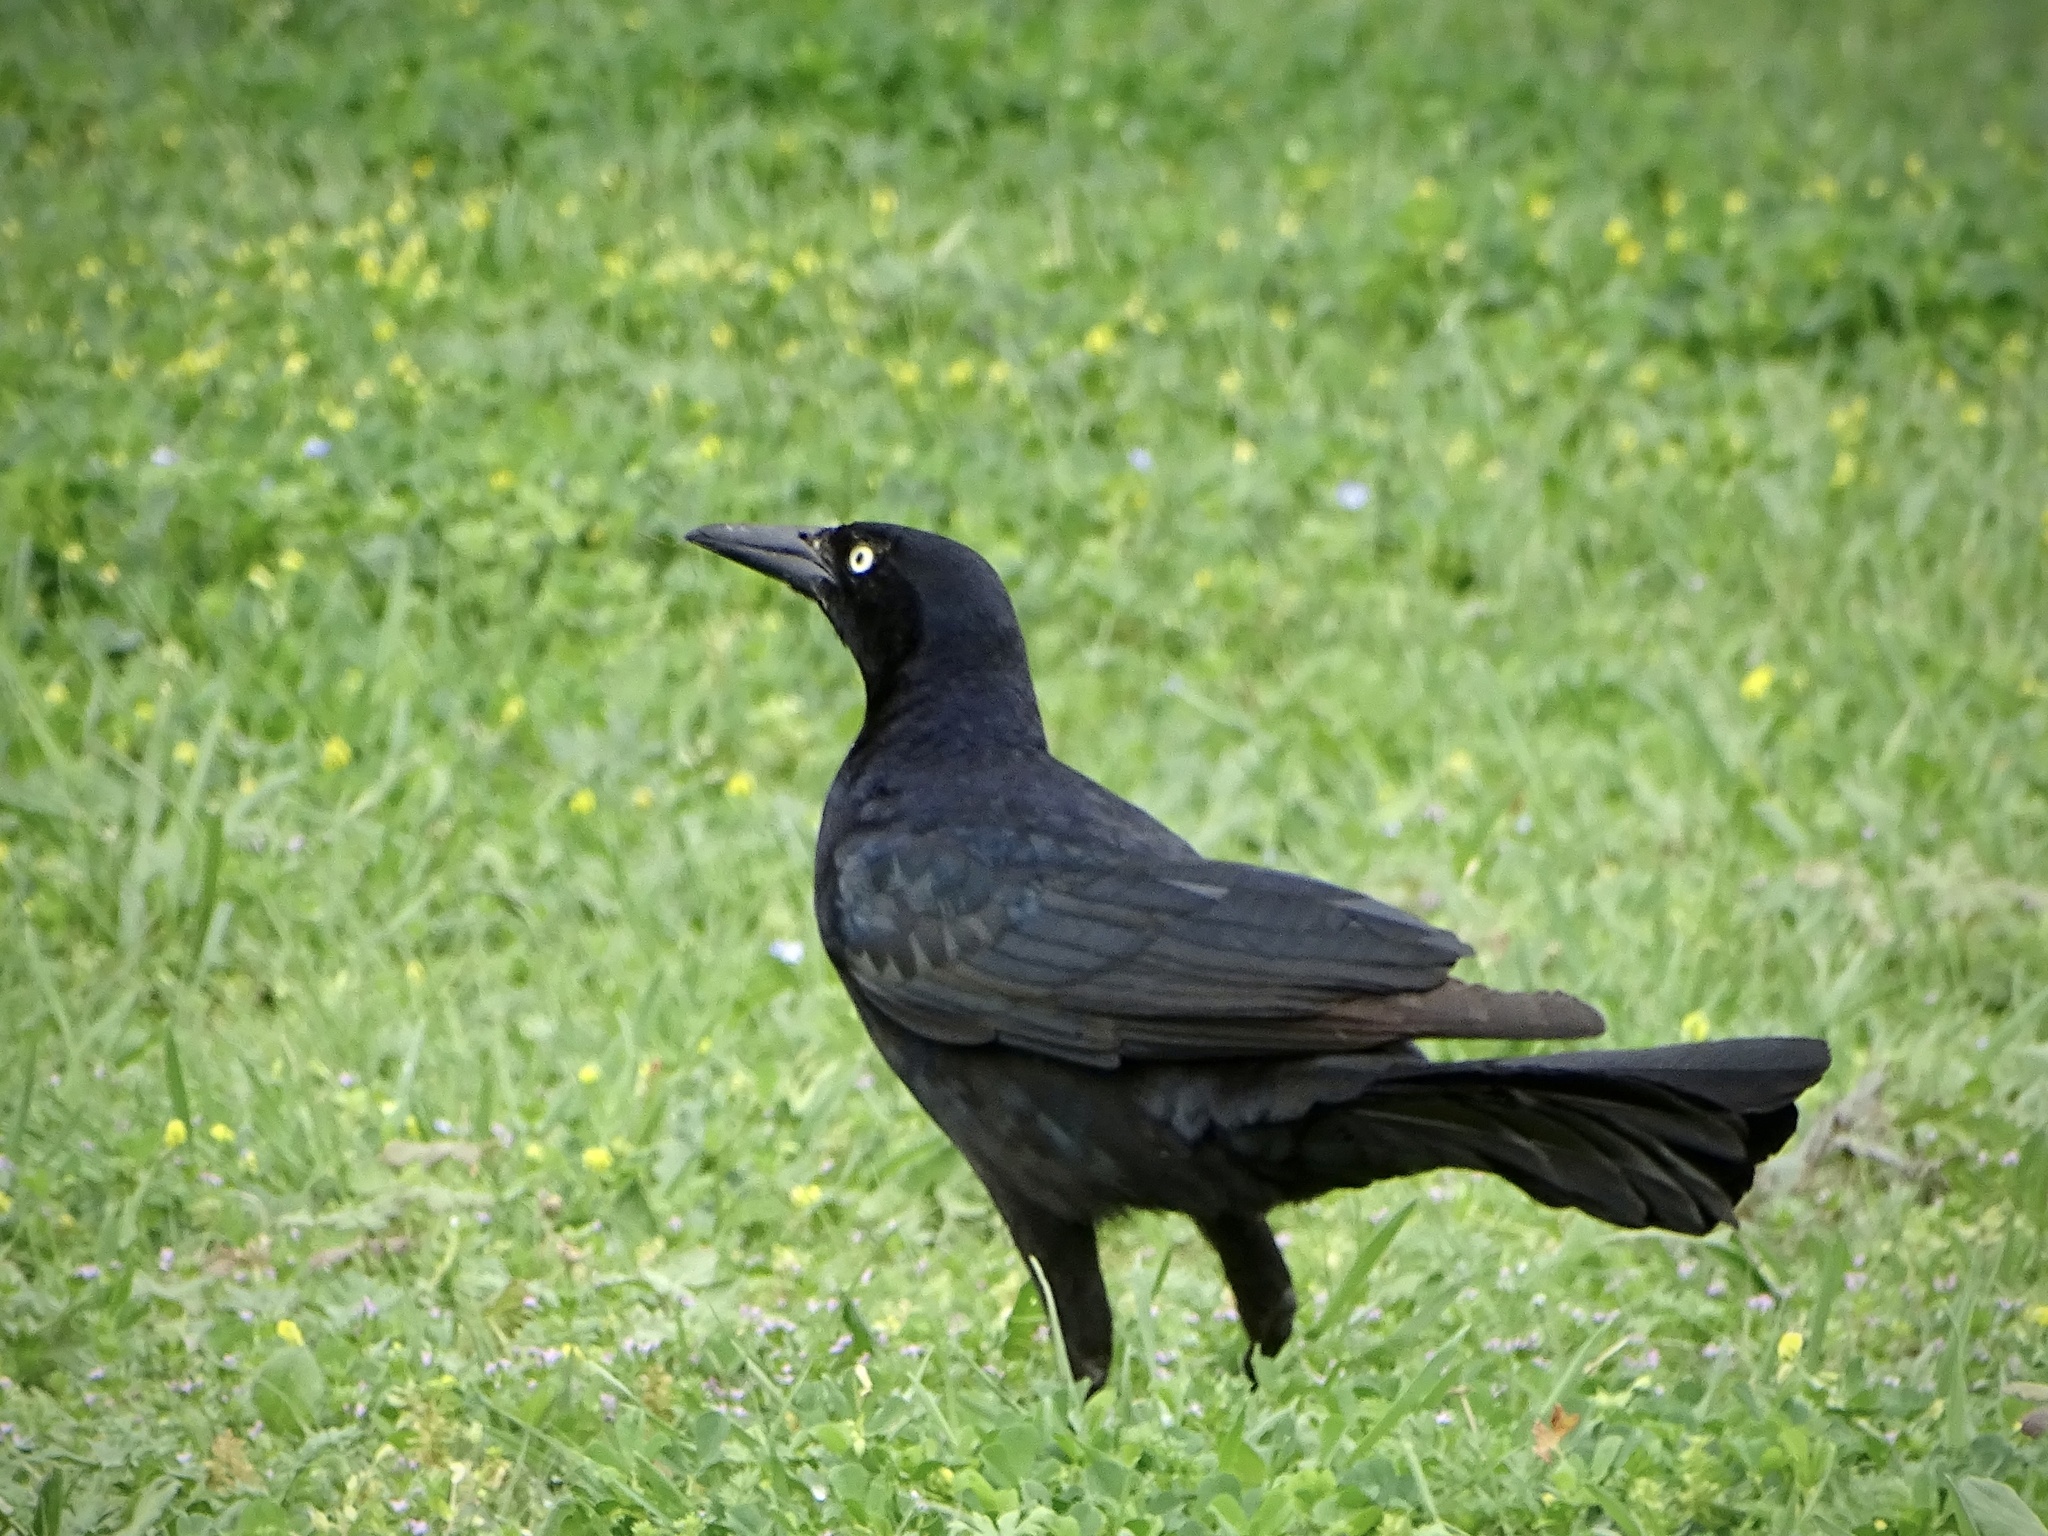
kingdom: Animalia
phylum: Chordata
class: Aves
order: Passeriformes
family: Icteridae
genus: Quiscalus
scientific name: Quiscalus mexicanus
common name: Great-tailed grackle
